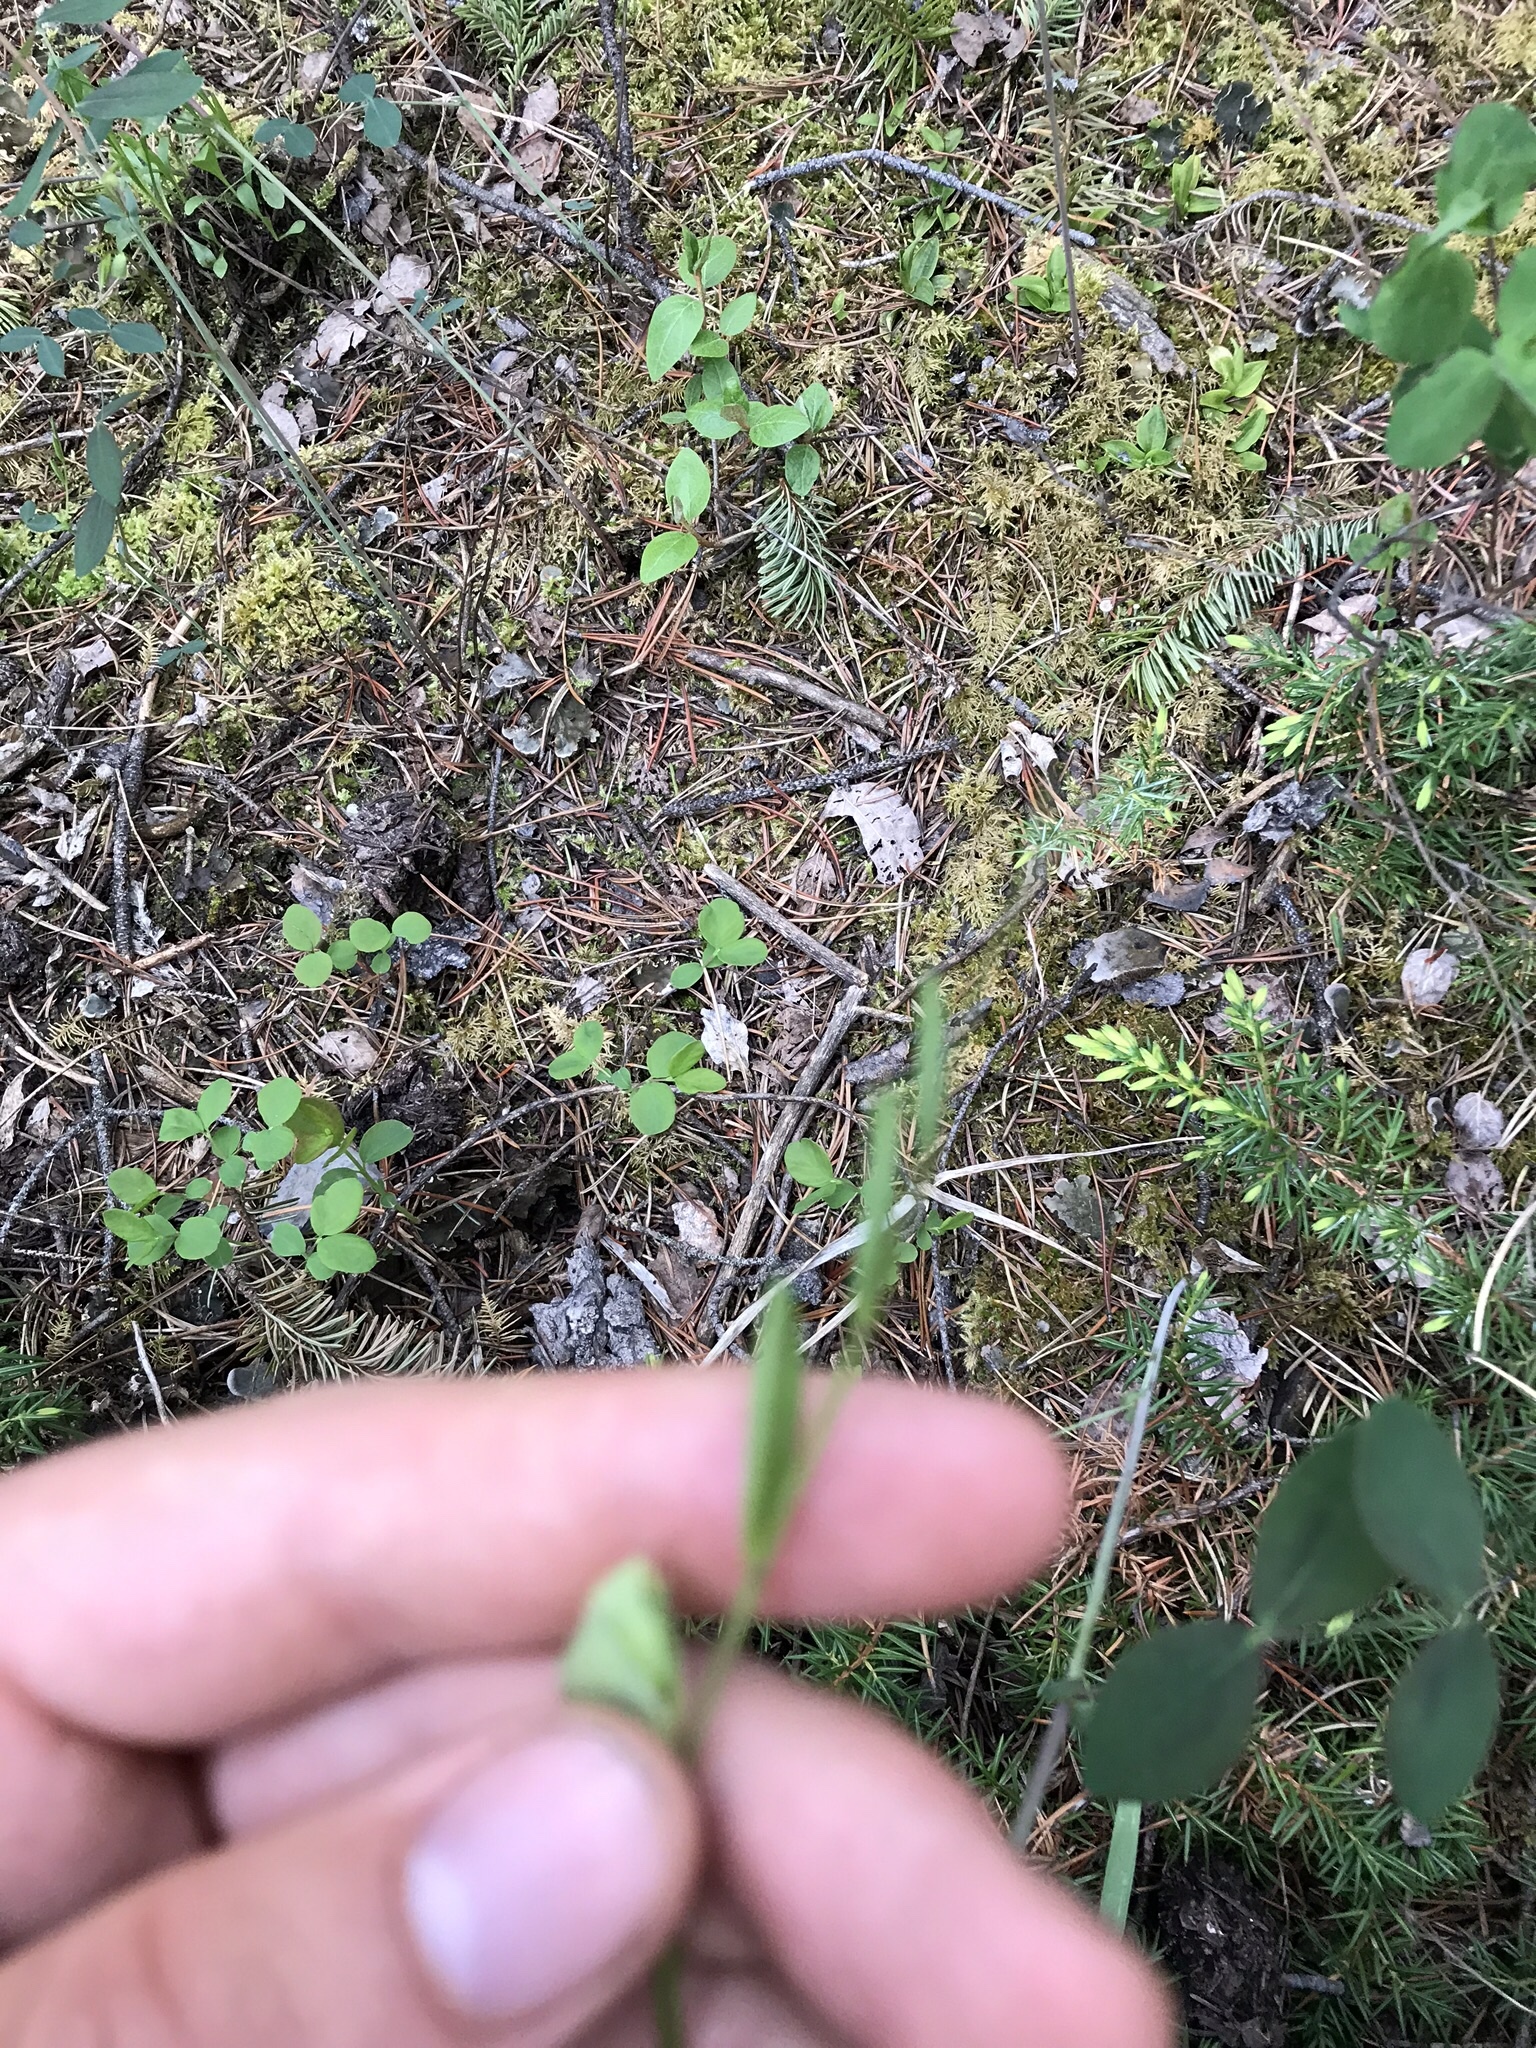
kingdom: Plantae
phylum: Tracheophyta
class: Magnoliopsida
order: Fabales
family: Fabaceae
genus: Lathyrus
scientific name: Lathyrus ochroleucus
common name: Pale vetchling
